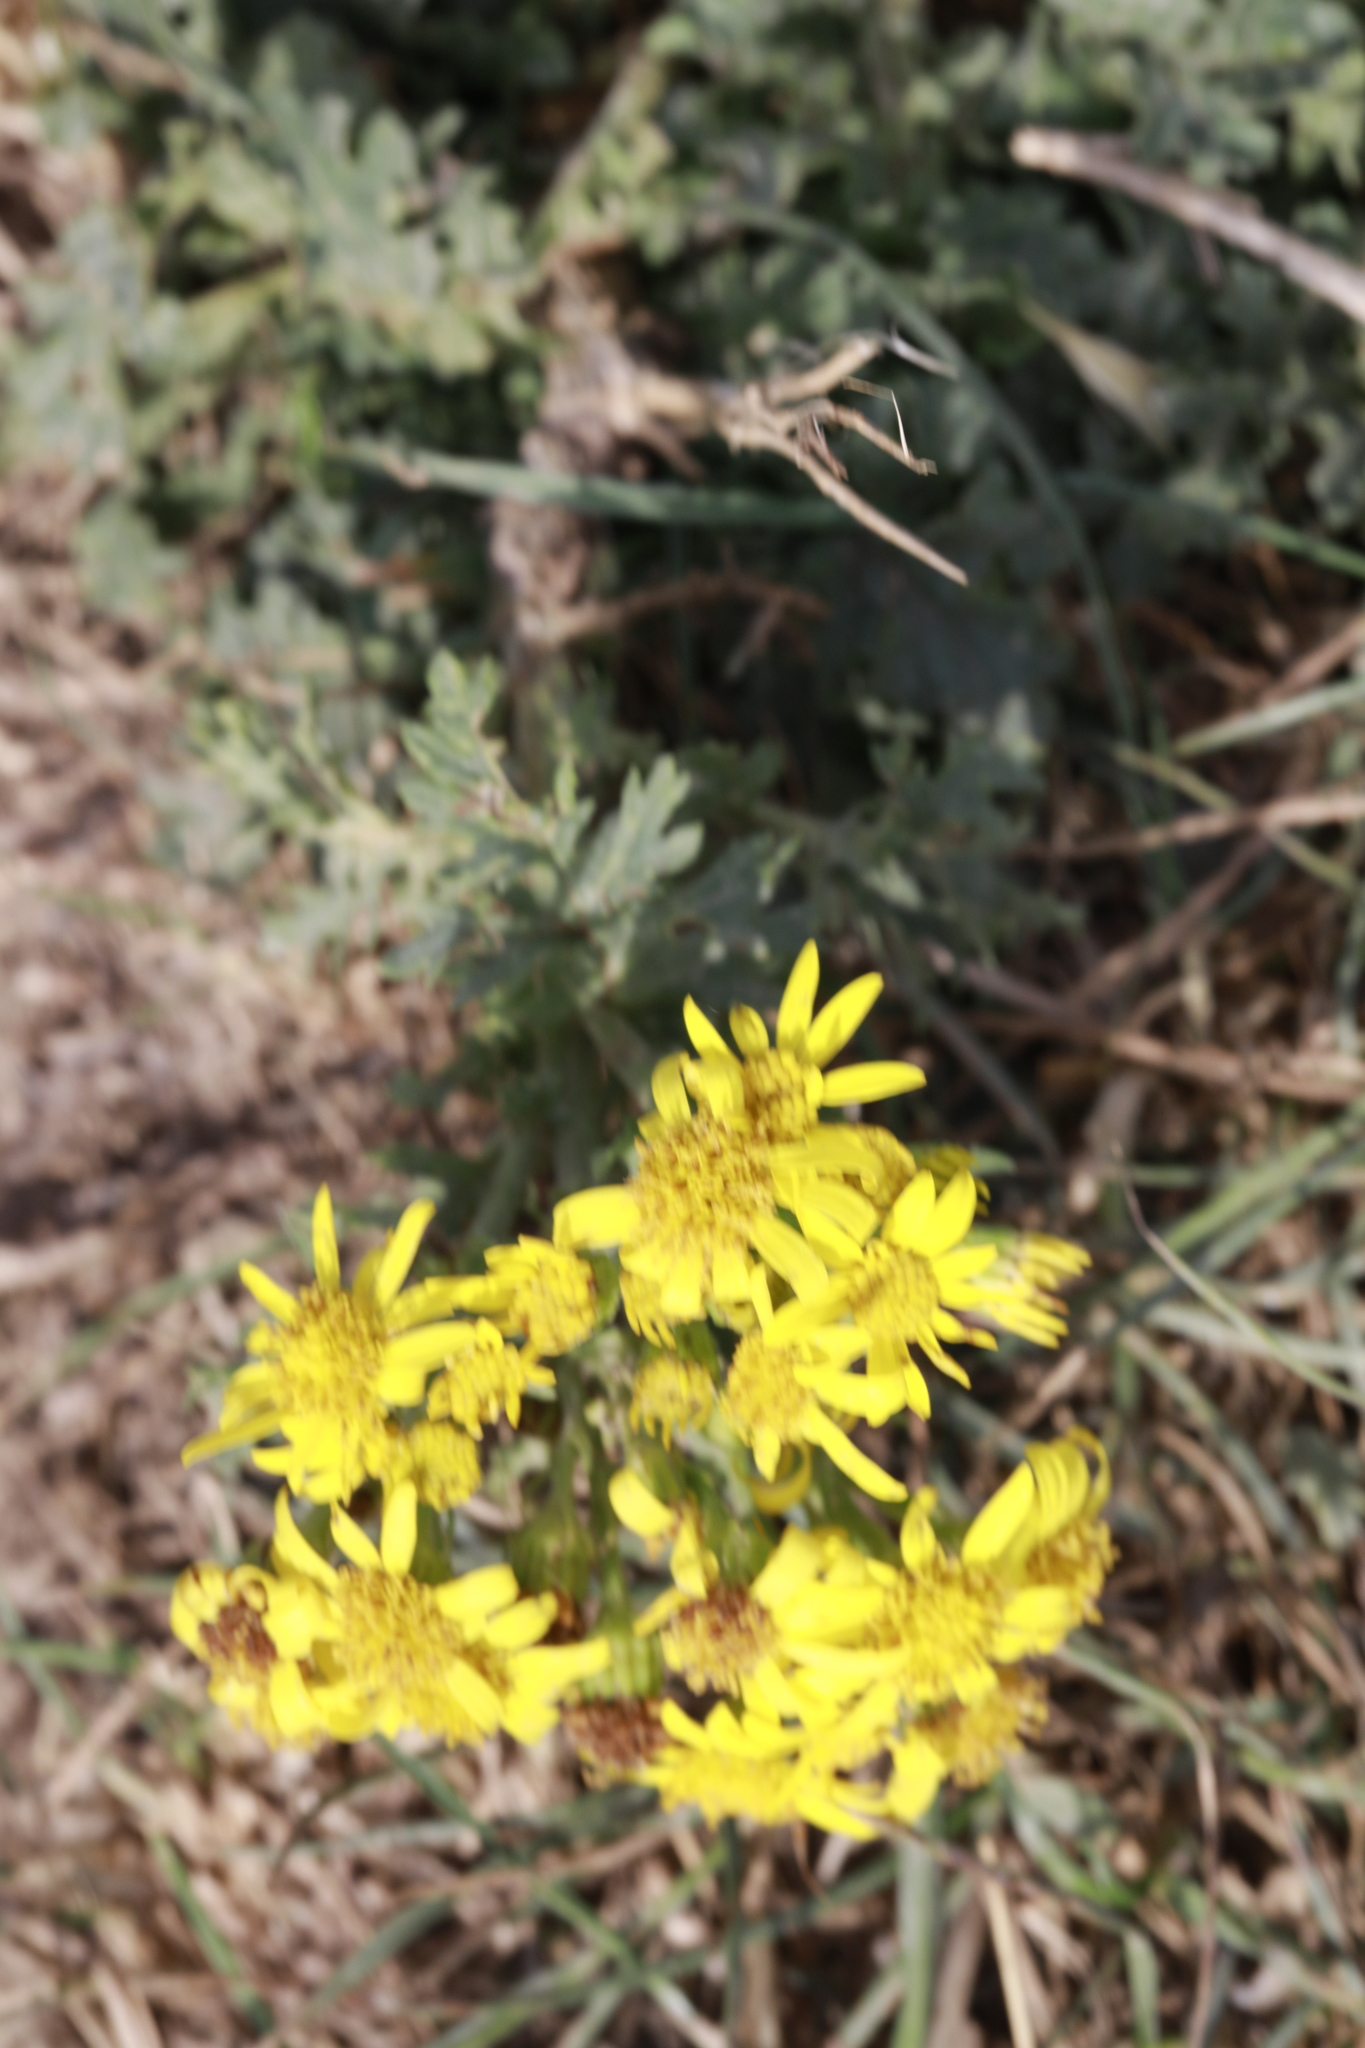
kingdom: Plantae
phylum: Tracheophyta
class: Magnoliopsida
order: Asterales
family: Asteraceae
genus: Jacobaea
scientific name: Jacobaea vulgaris
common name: Stinking willie
